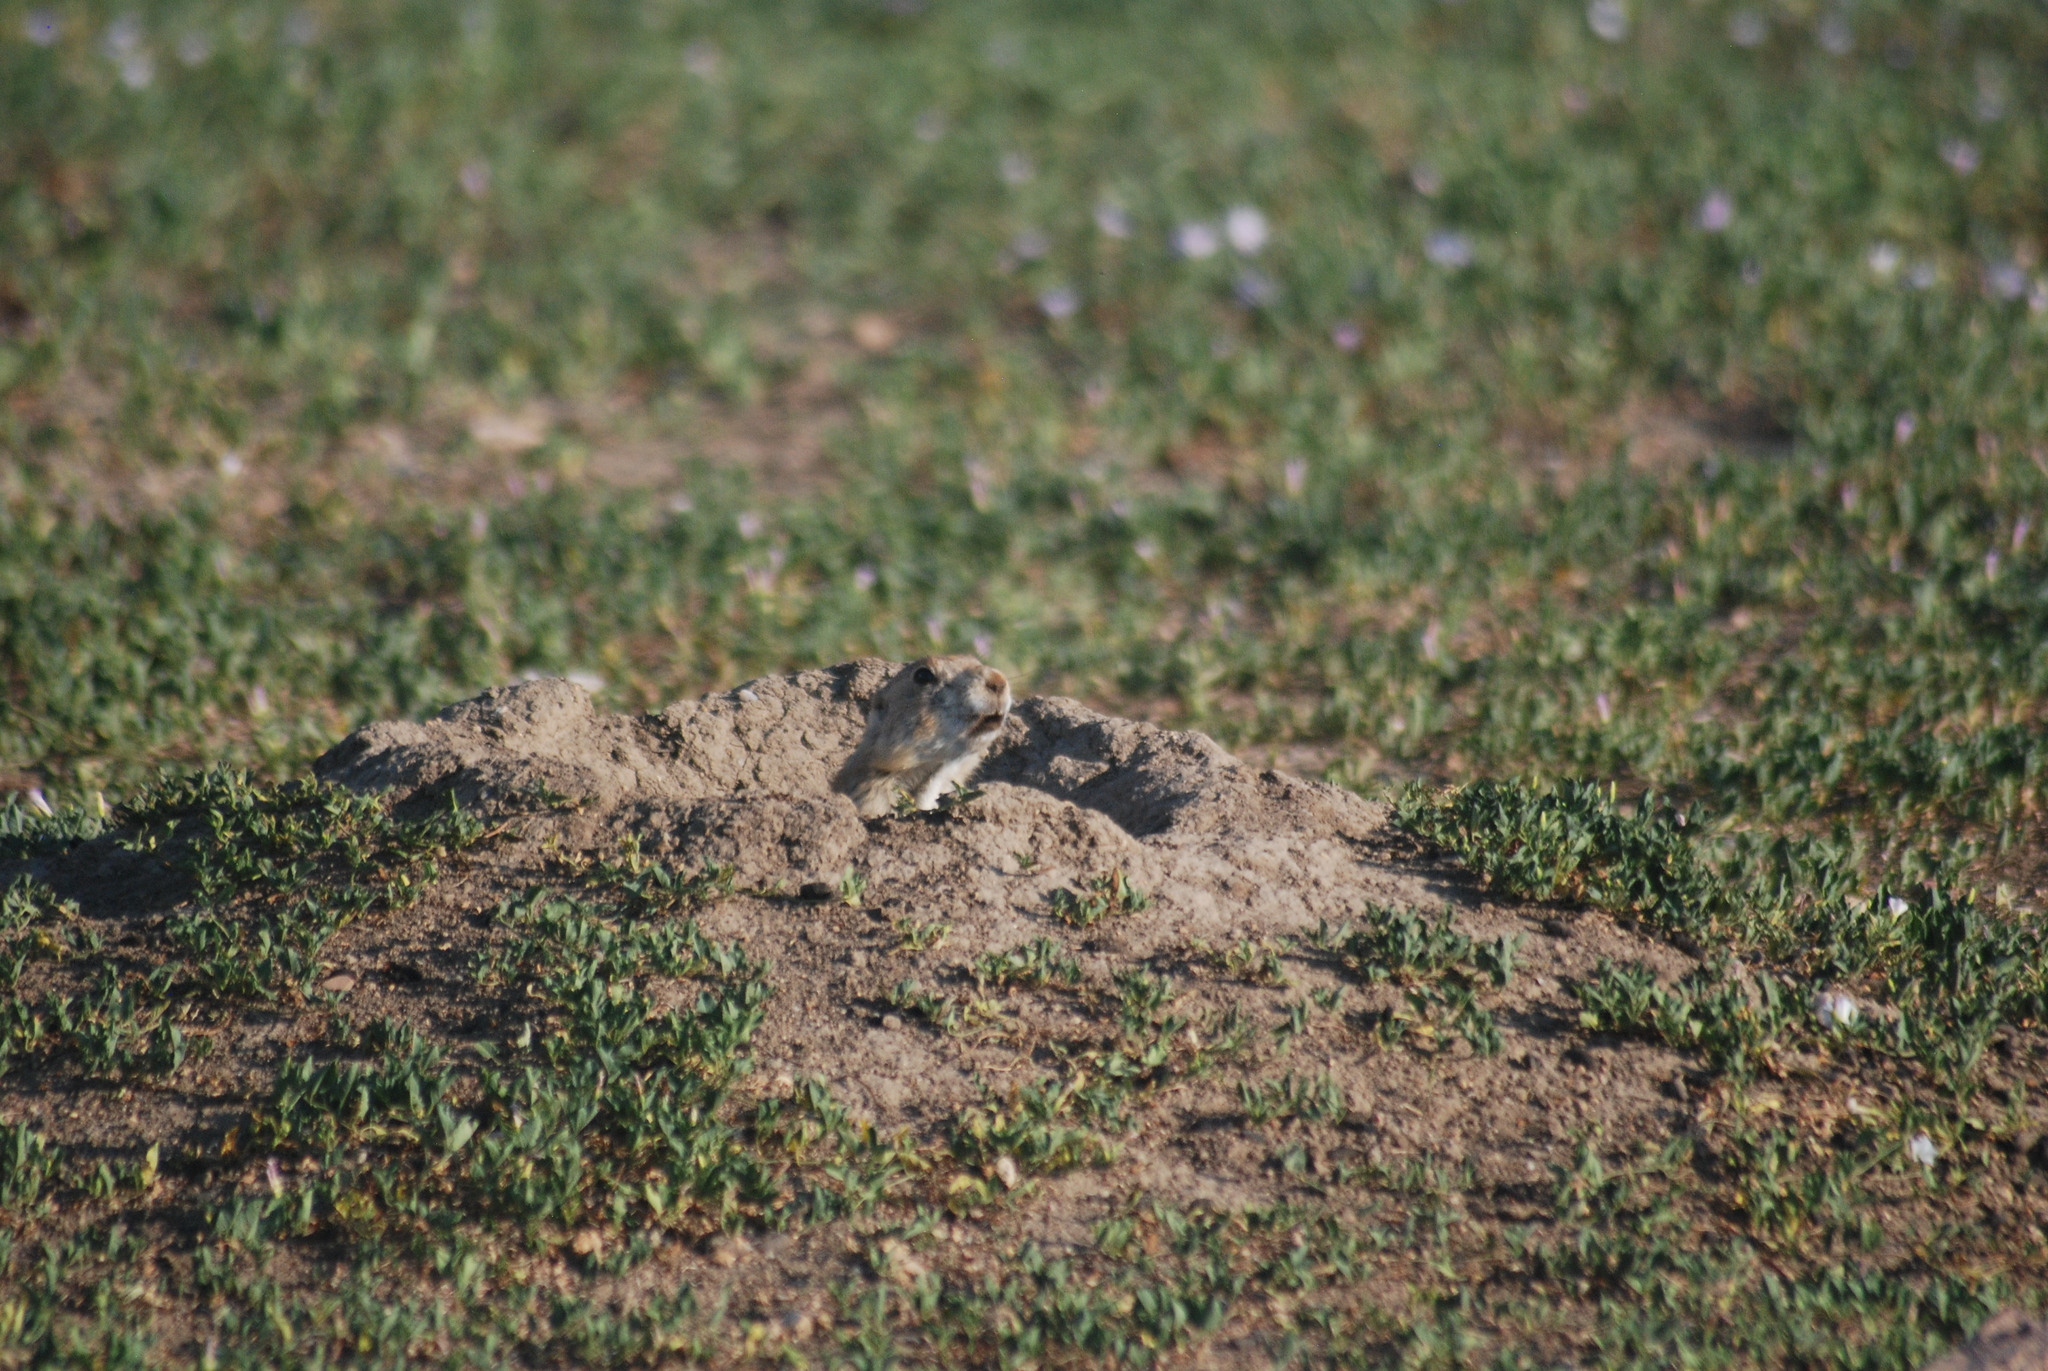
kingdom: Animalia
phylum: Chordata
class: Mammalia
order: Rodentia
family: Sciuridae
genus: Cynomys
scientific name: Cynomys ludovicianus
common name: Black-tailed prairie dog
